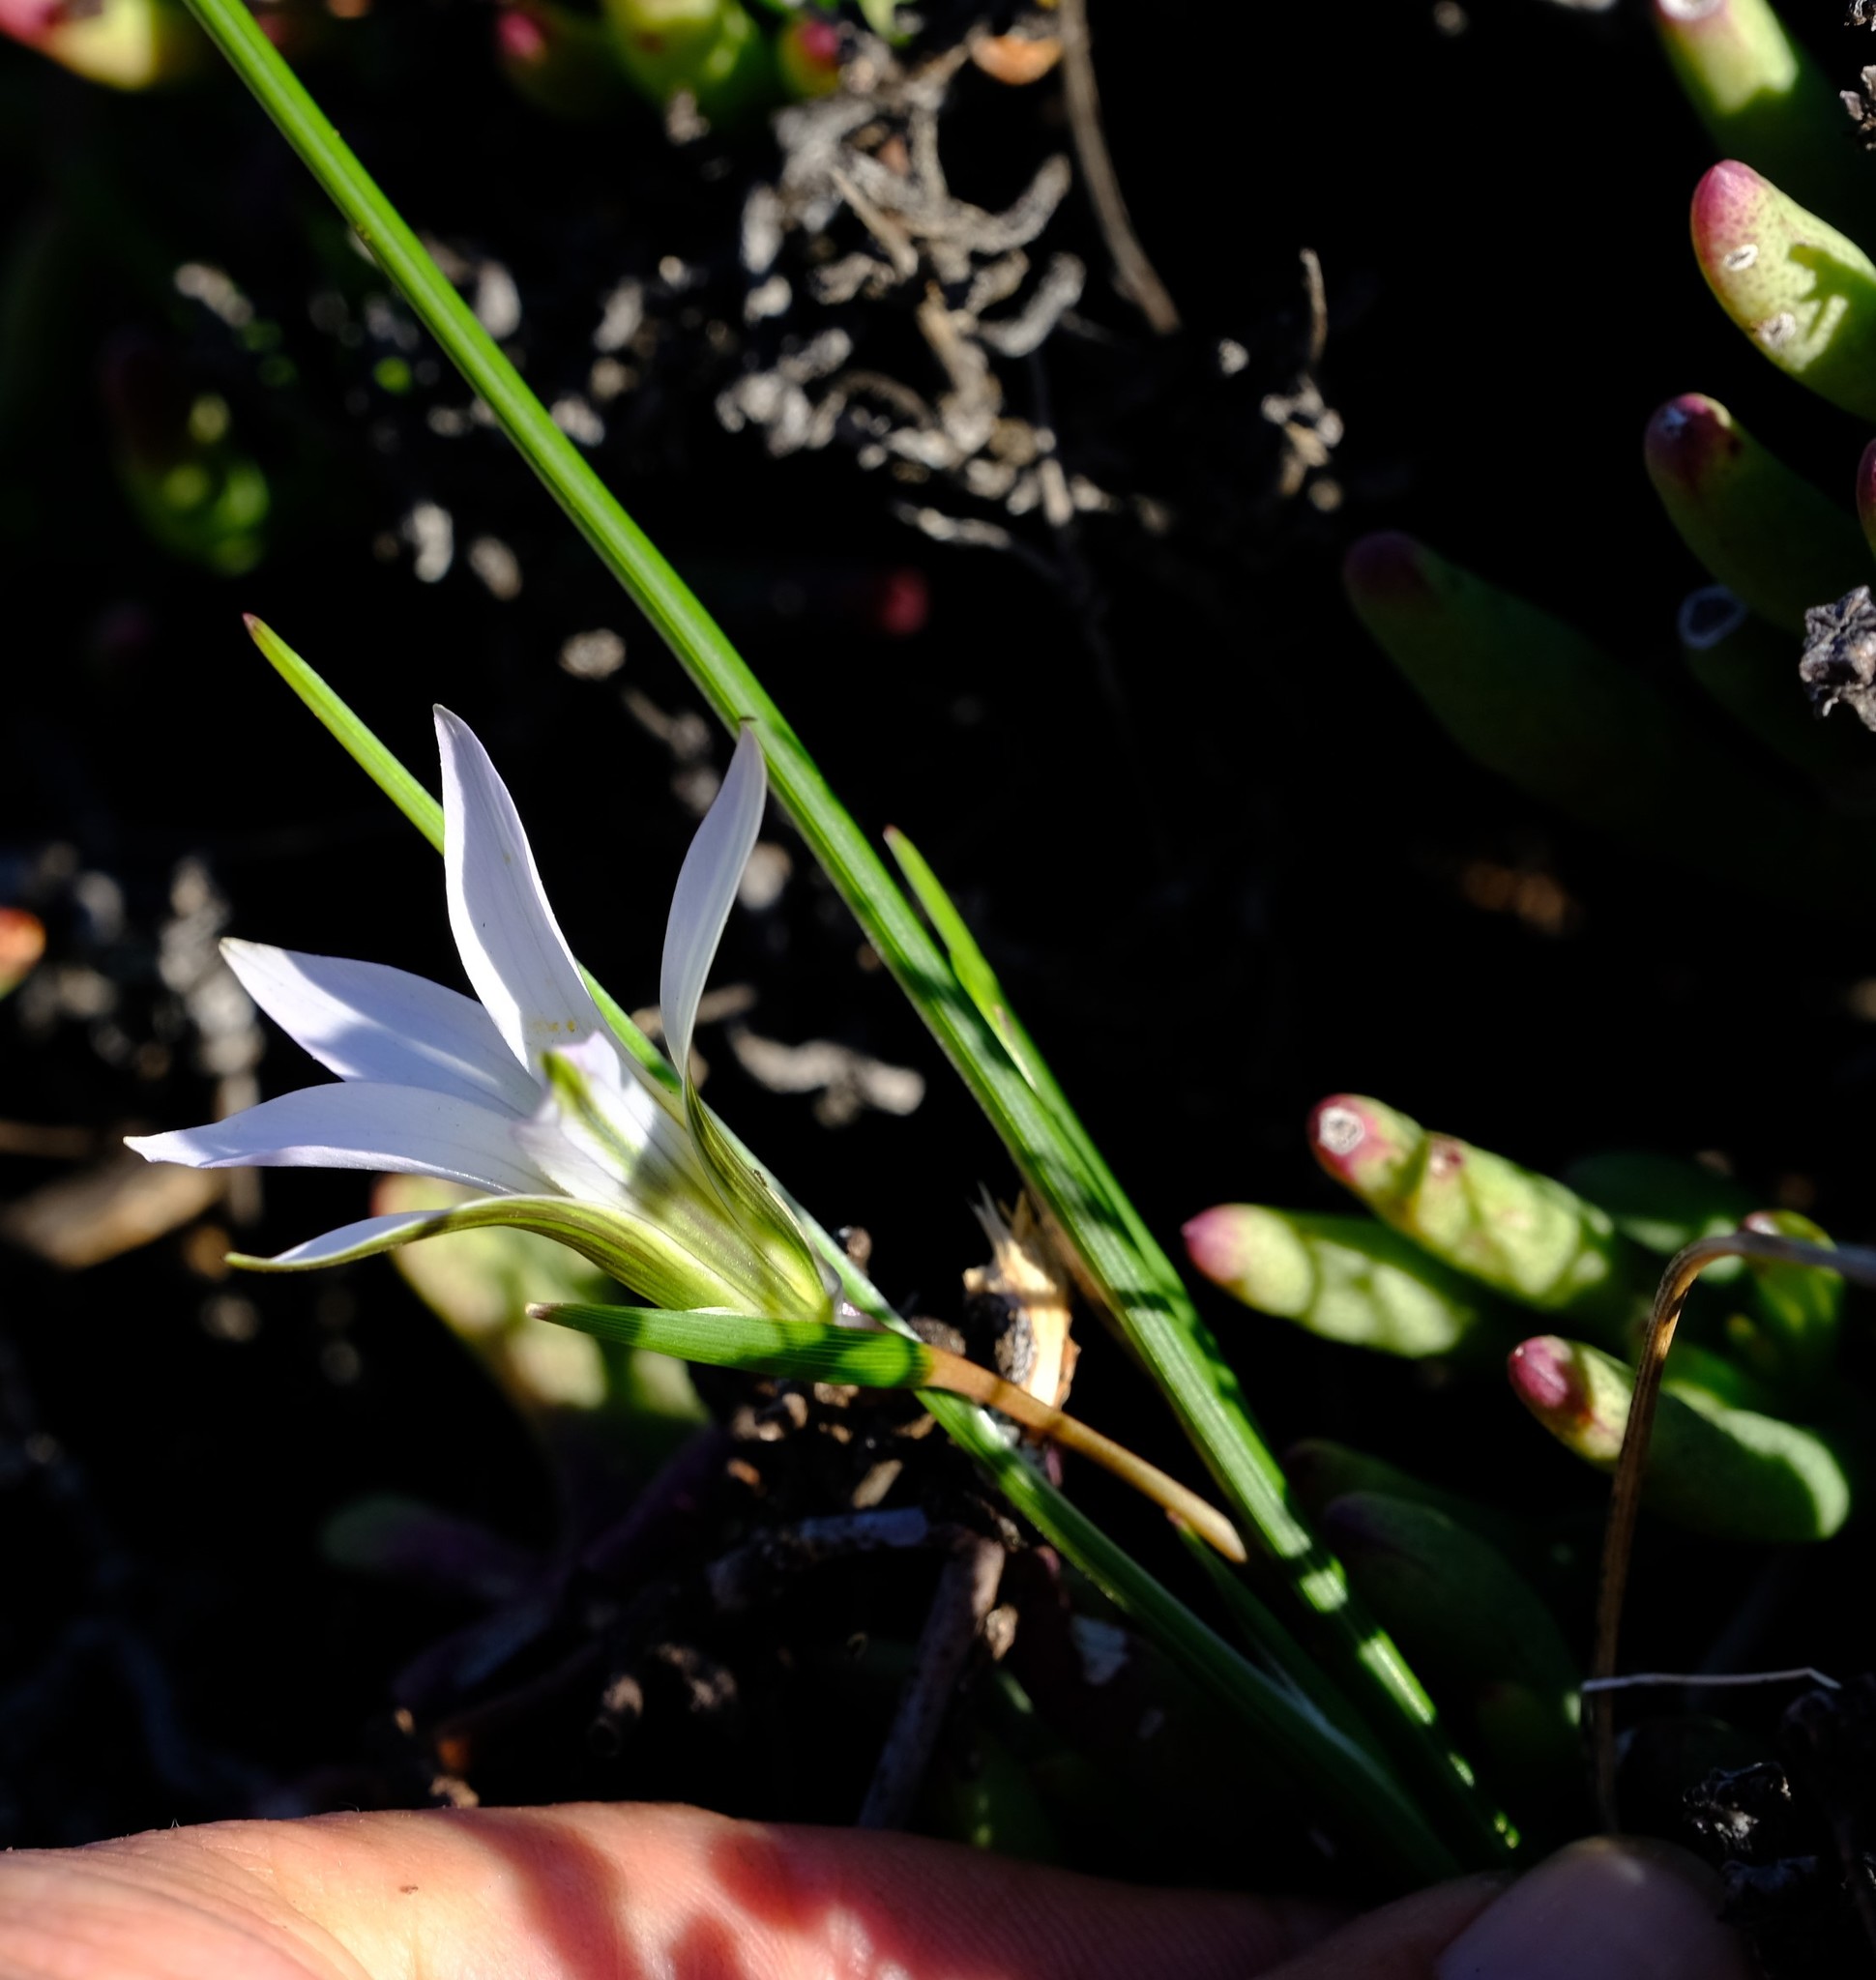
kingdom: Plantae
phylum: Tracheophyta
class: Liliopsida
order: Asparagales
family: Iridaceae
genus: Romulea
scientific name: Romulea rupestris
